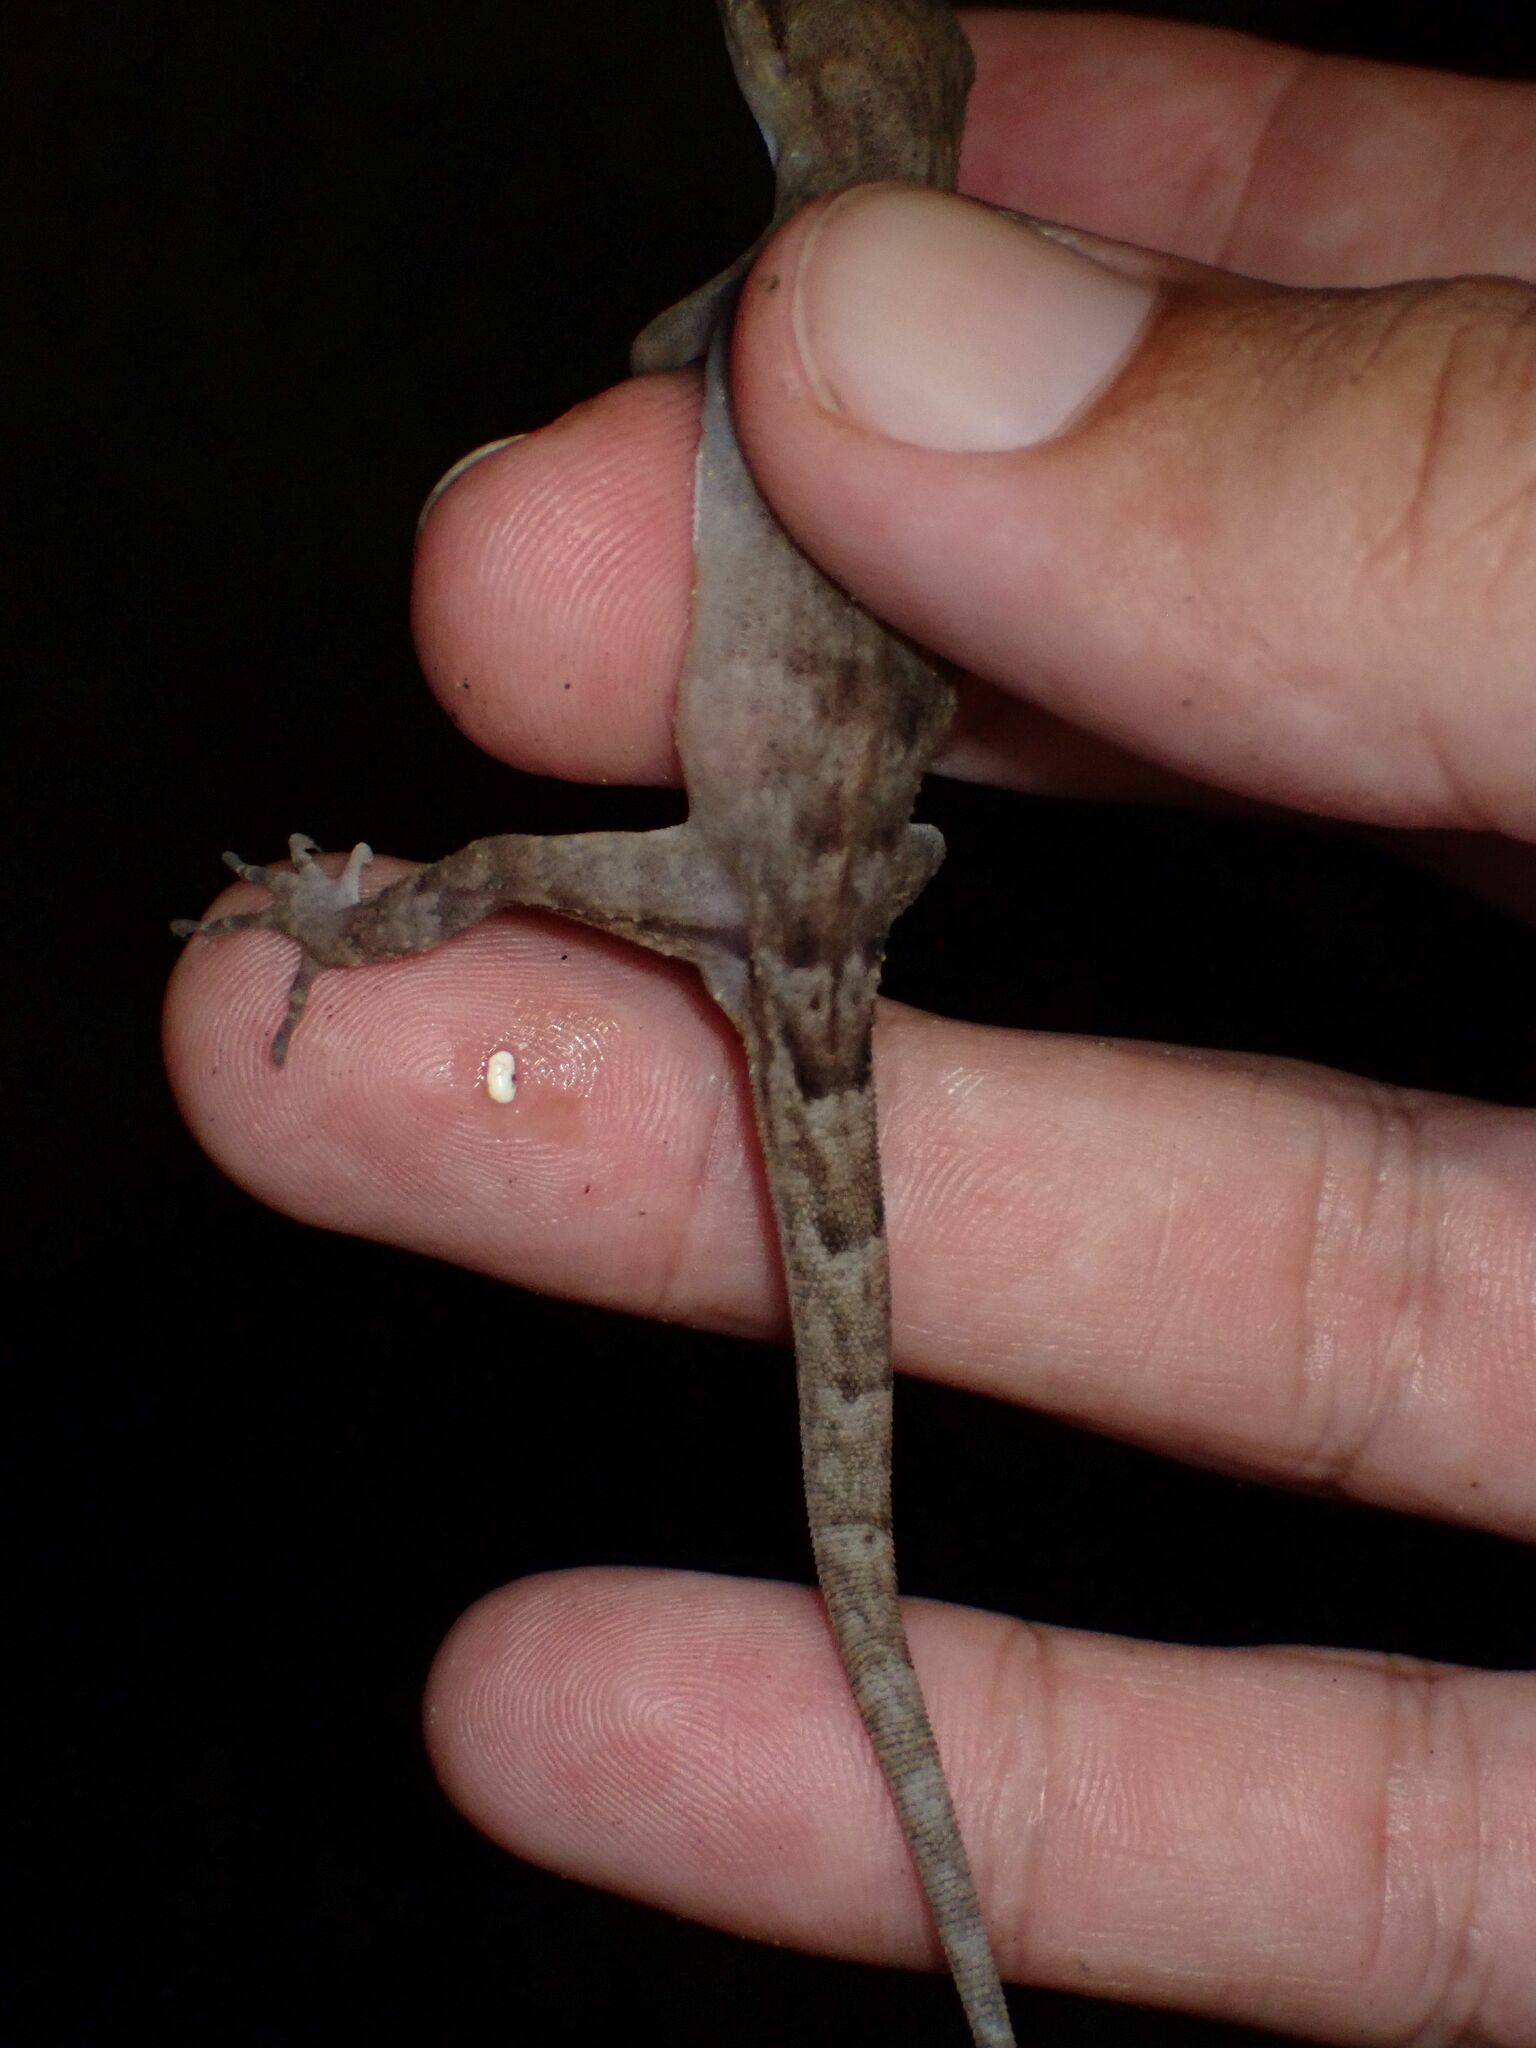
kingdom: Animalia
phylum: Chordata
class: Squamata
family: Gekkonidae
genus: Nactus
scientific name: Nactus pelagicus
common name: Pelagic gecko
